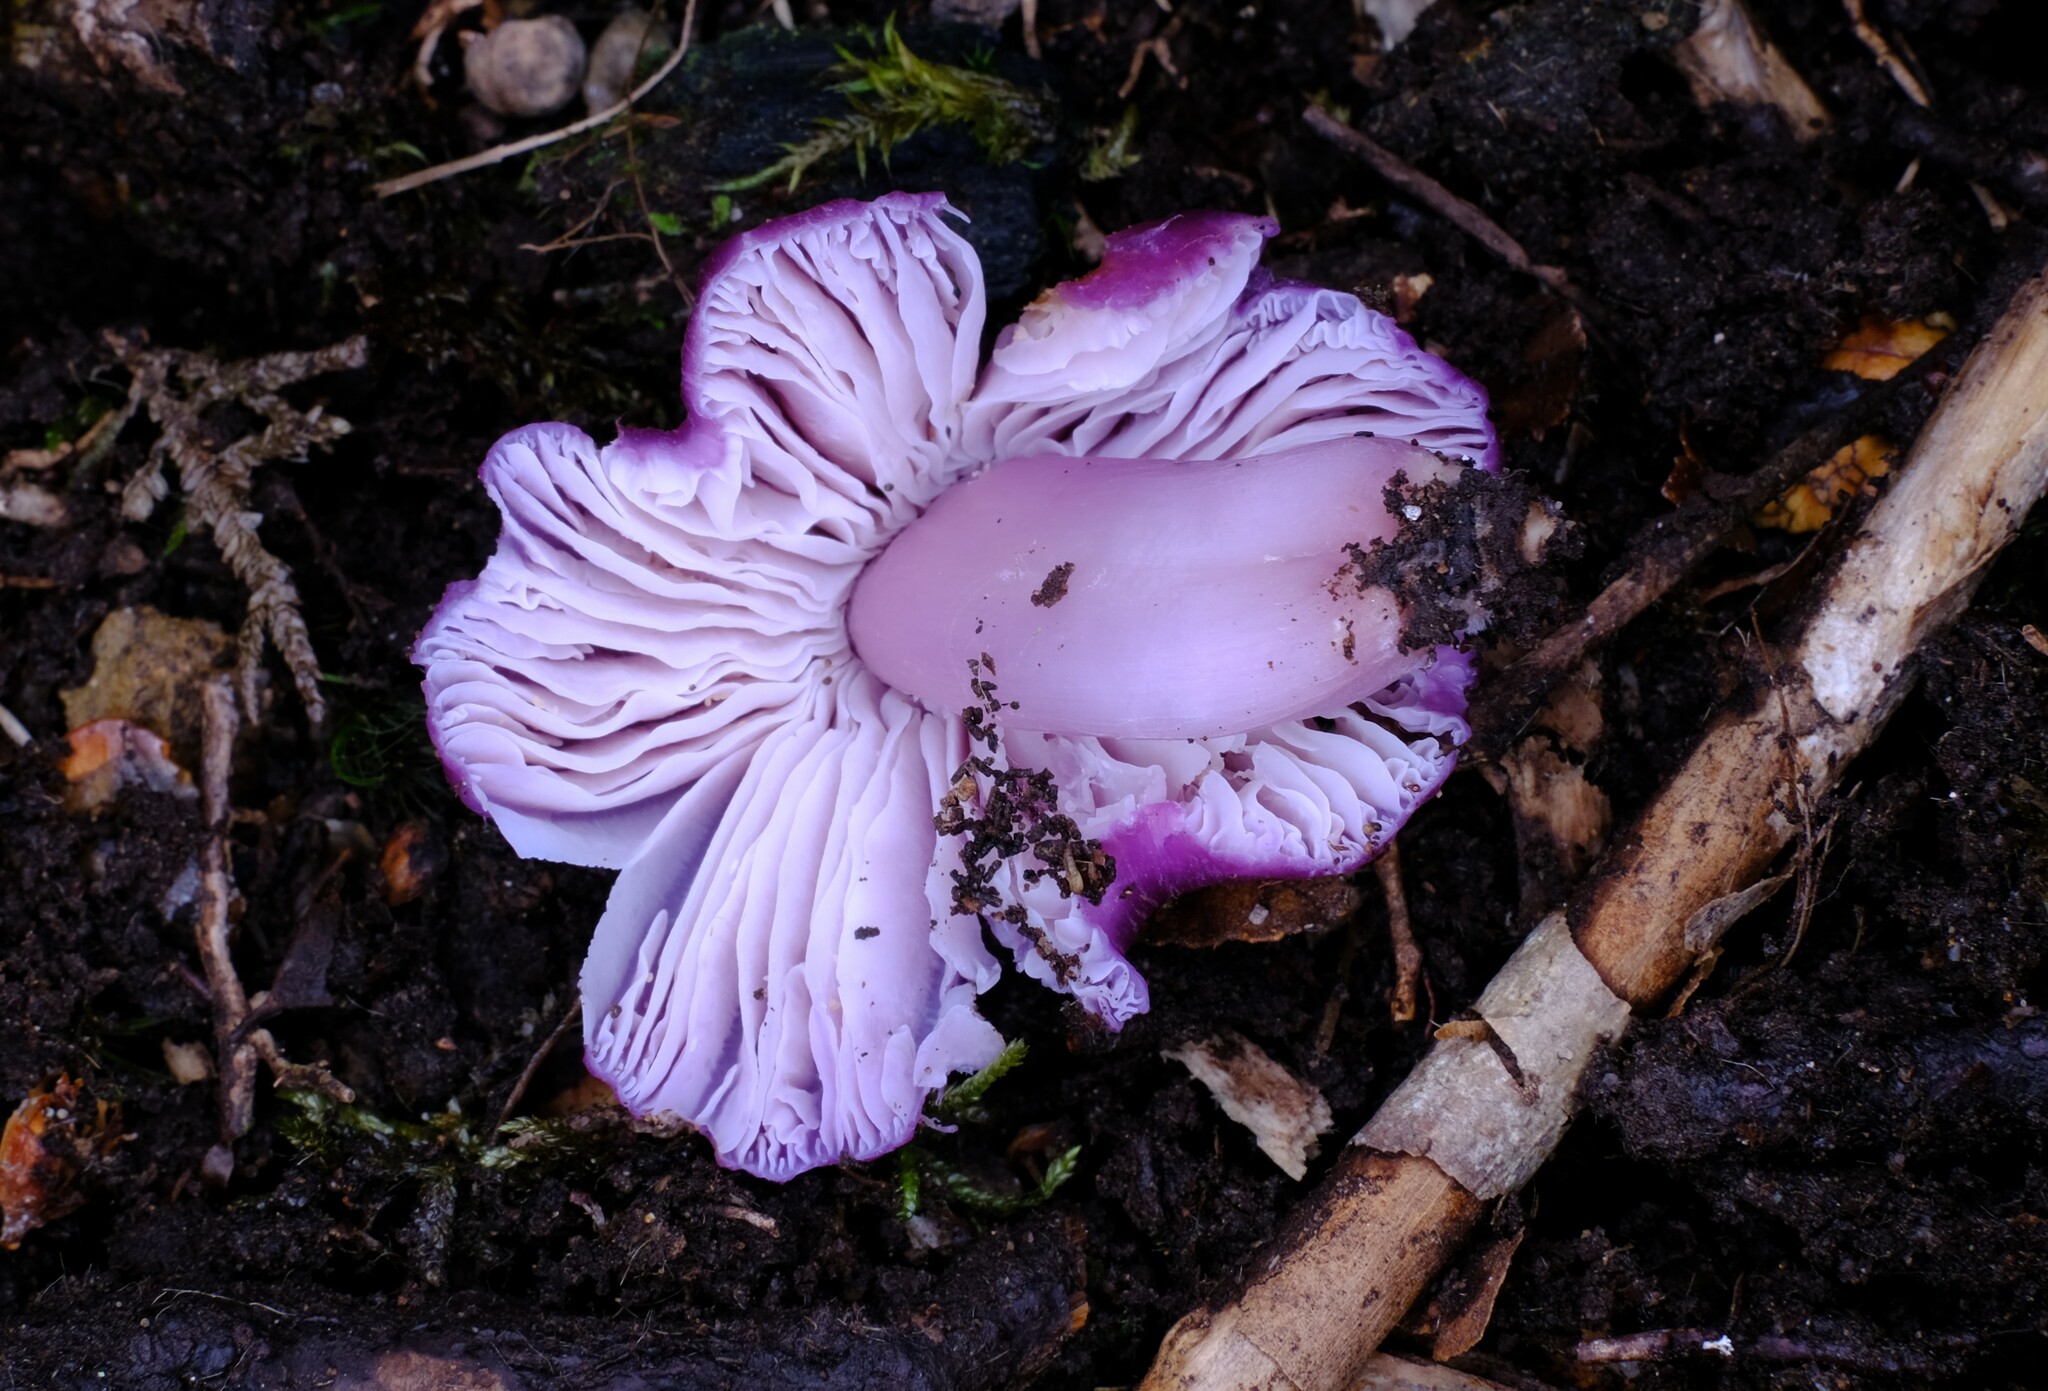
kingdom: Fungi
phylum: Basidiomycota
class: Agaricomycetes
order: Agaricales
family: Hygrophoraceae
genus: Porpolomopsis
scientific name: Porpolomopsis lewelliniae
